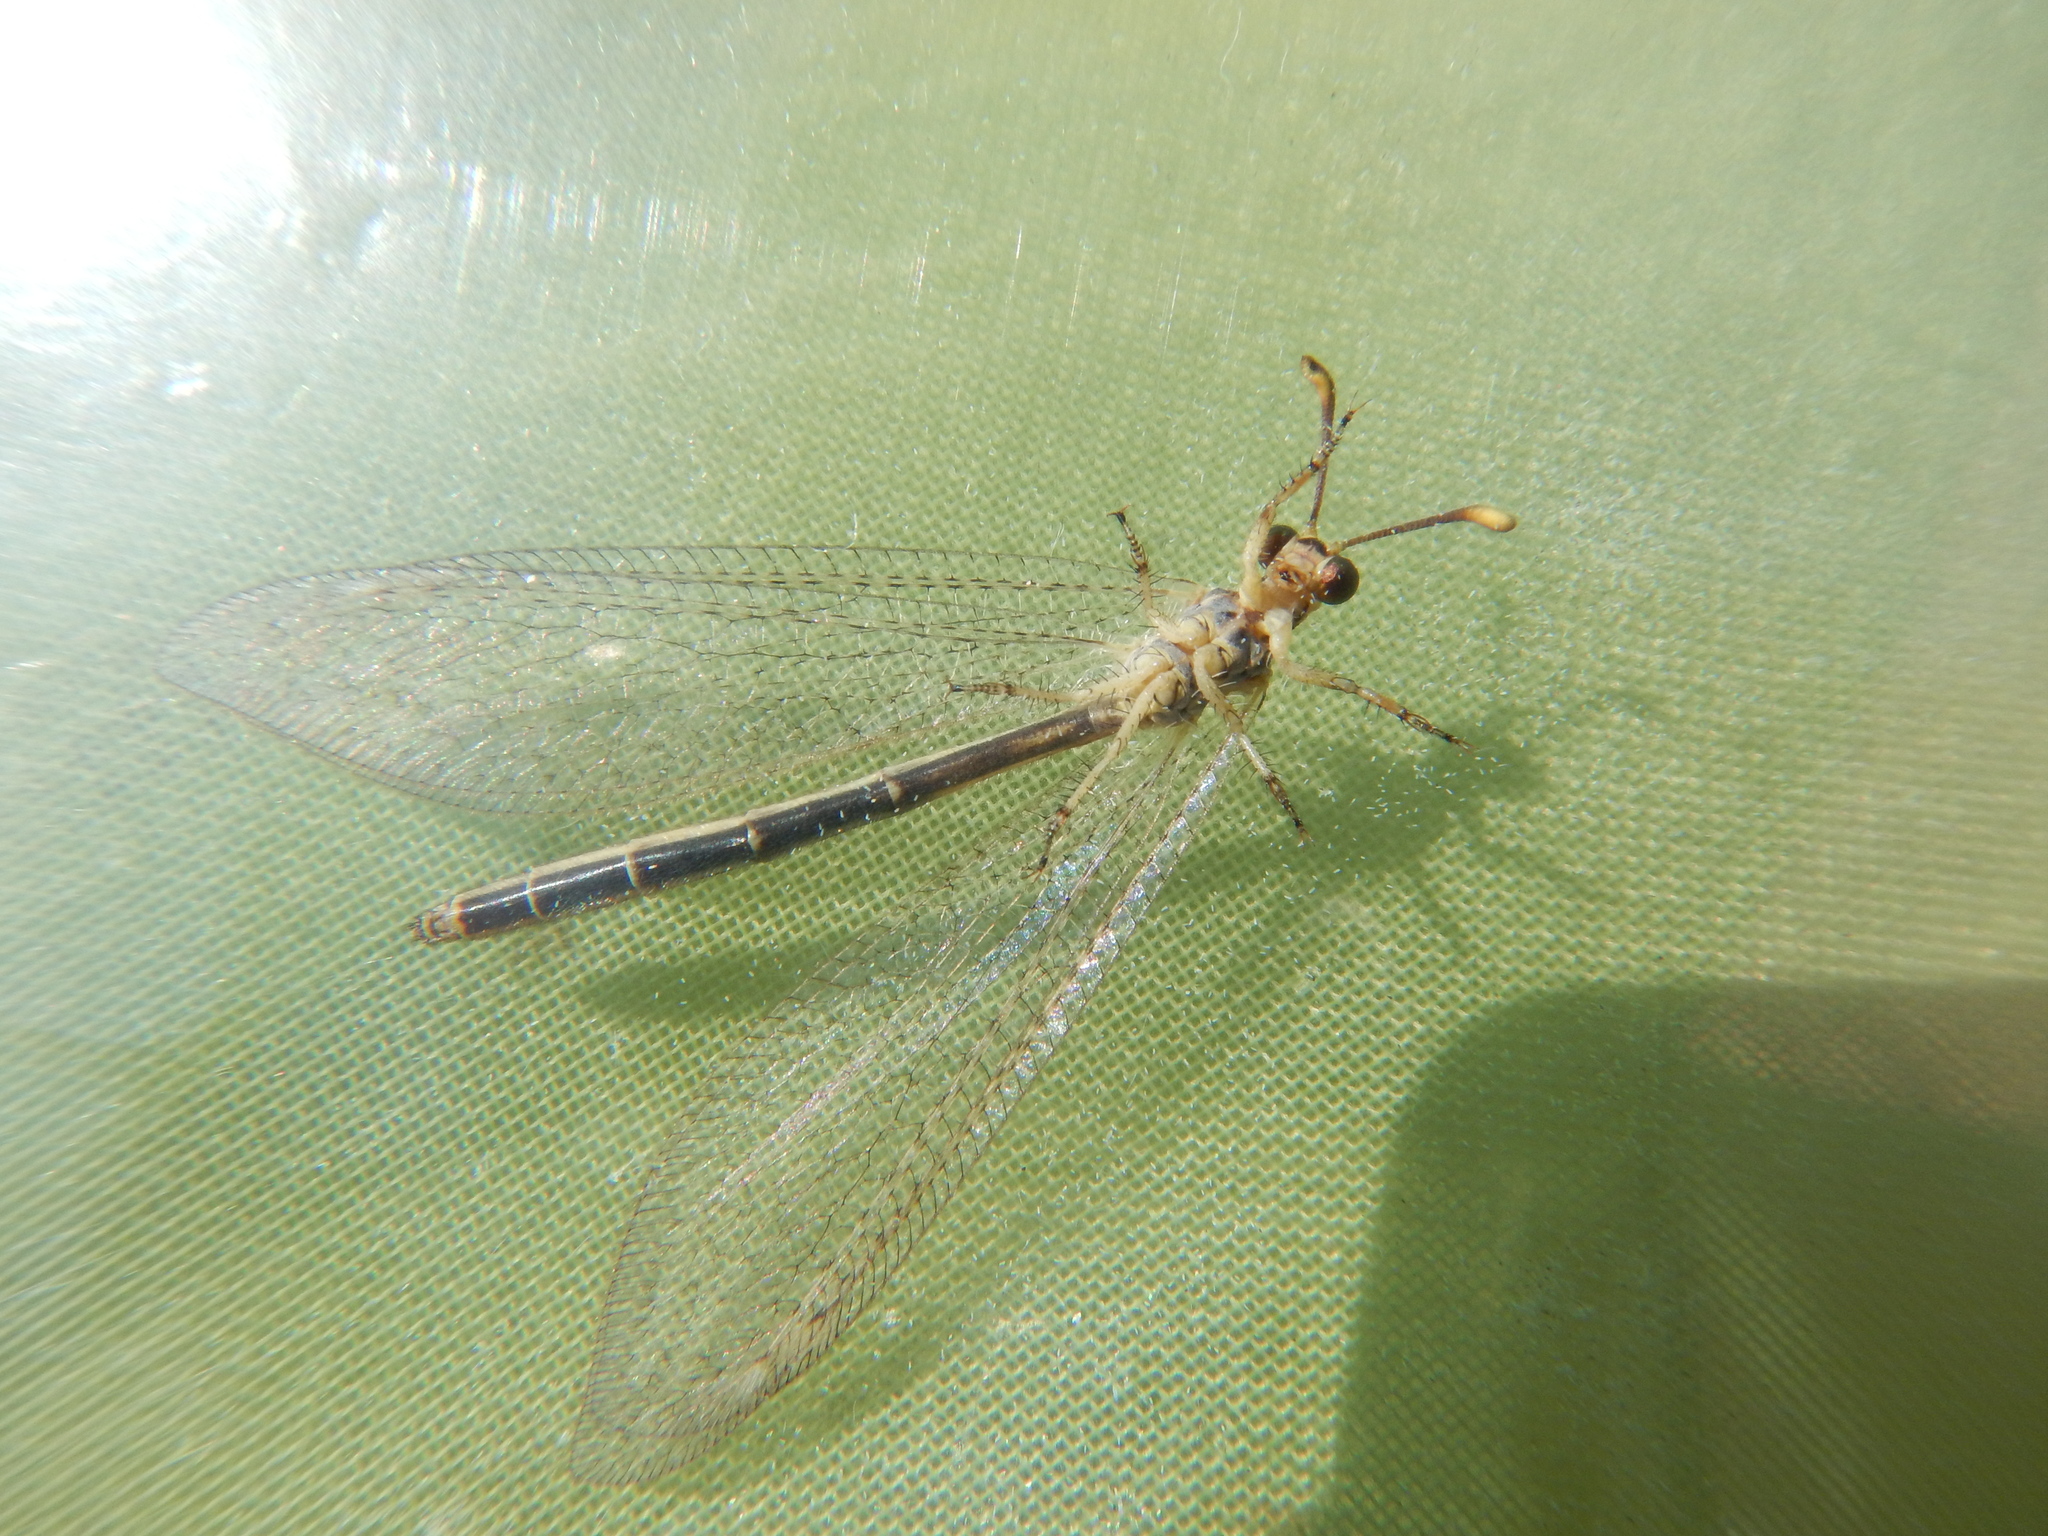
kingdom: Animalia
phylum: Arthropoda
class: Insecta
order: Neuroptera
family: Myrmeleontidae
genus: Macronemurus
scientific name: Macronemurus appendiculatus
